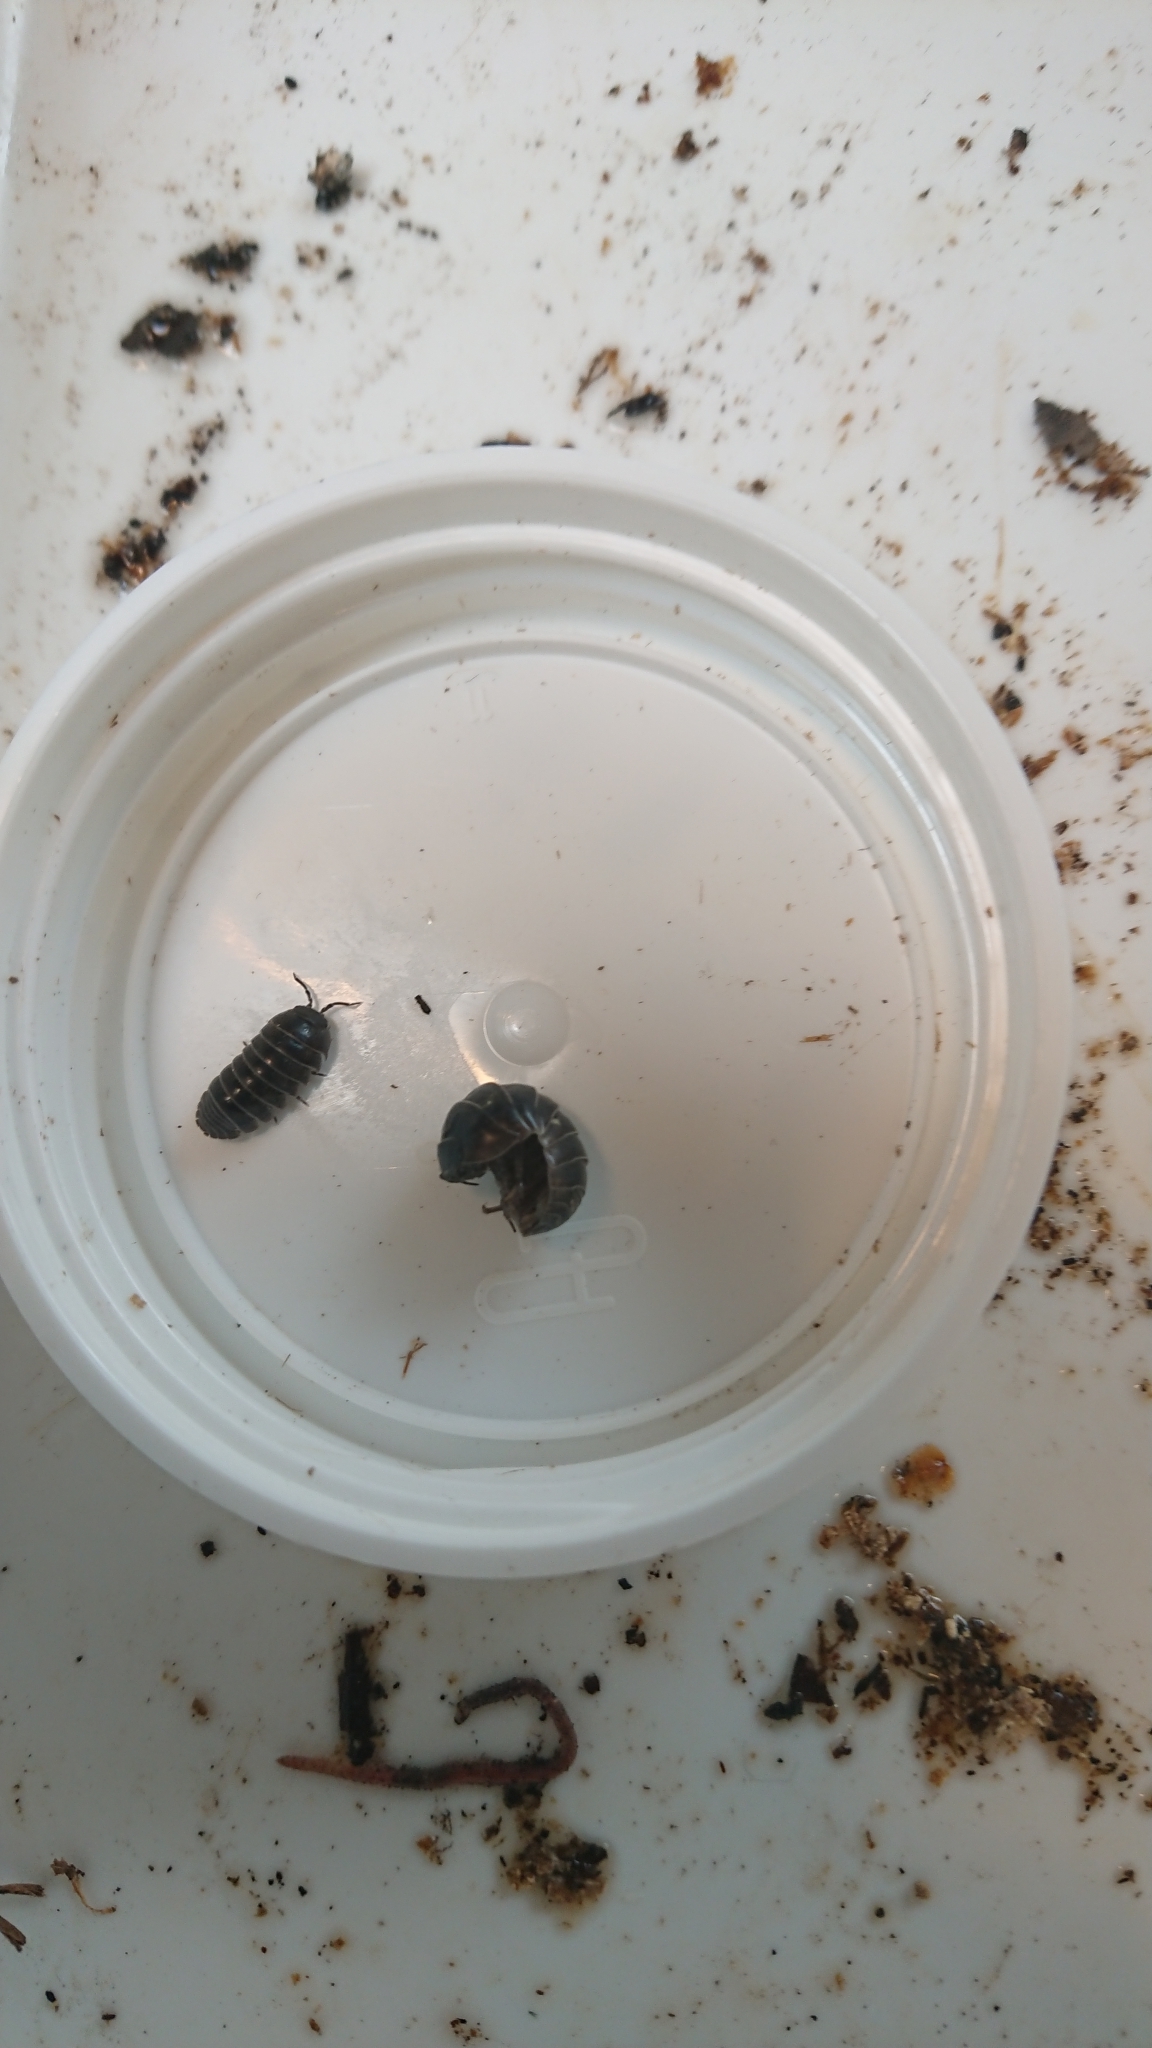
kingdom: Animalia
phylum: Arthropoda
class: Malacostraca
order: Isopoda
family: Armadillidiidae
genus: Armadillidium
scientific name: Armadillidium vulgare
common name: Common pill woodlouse
